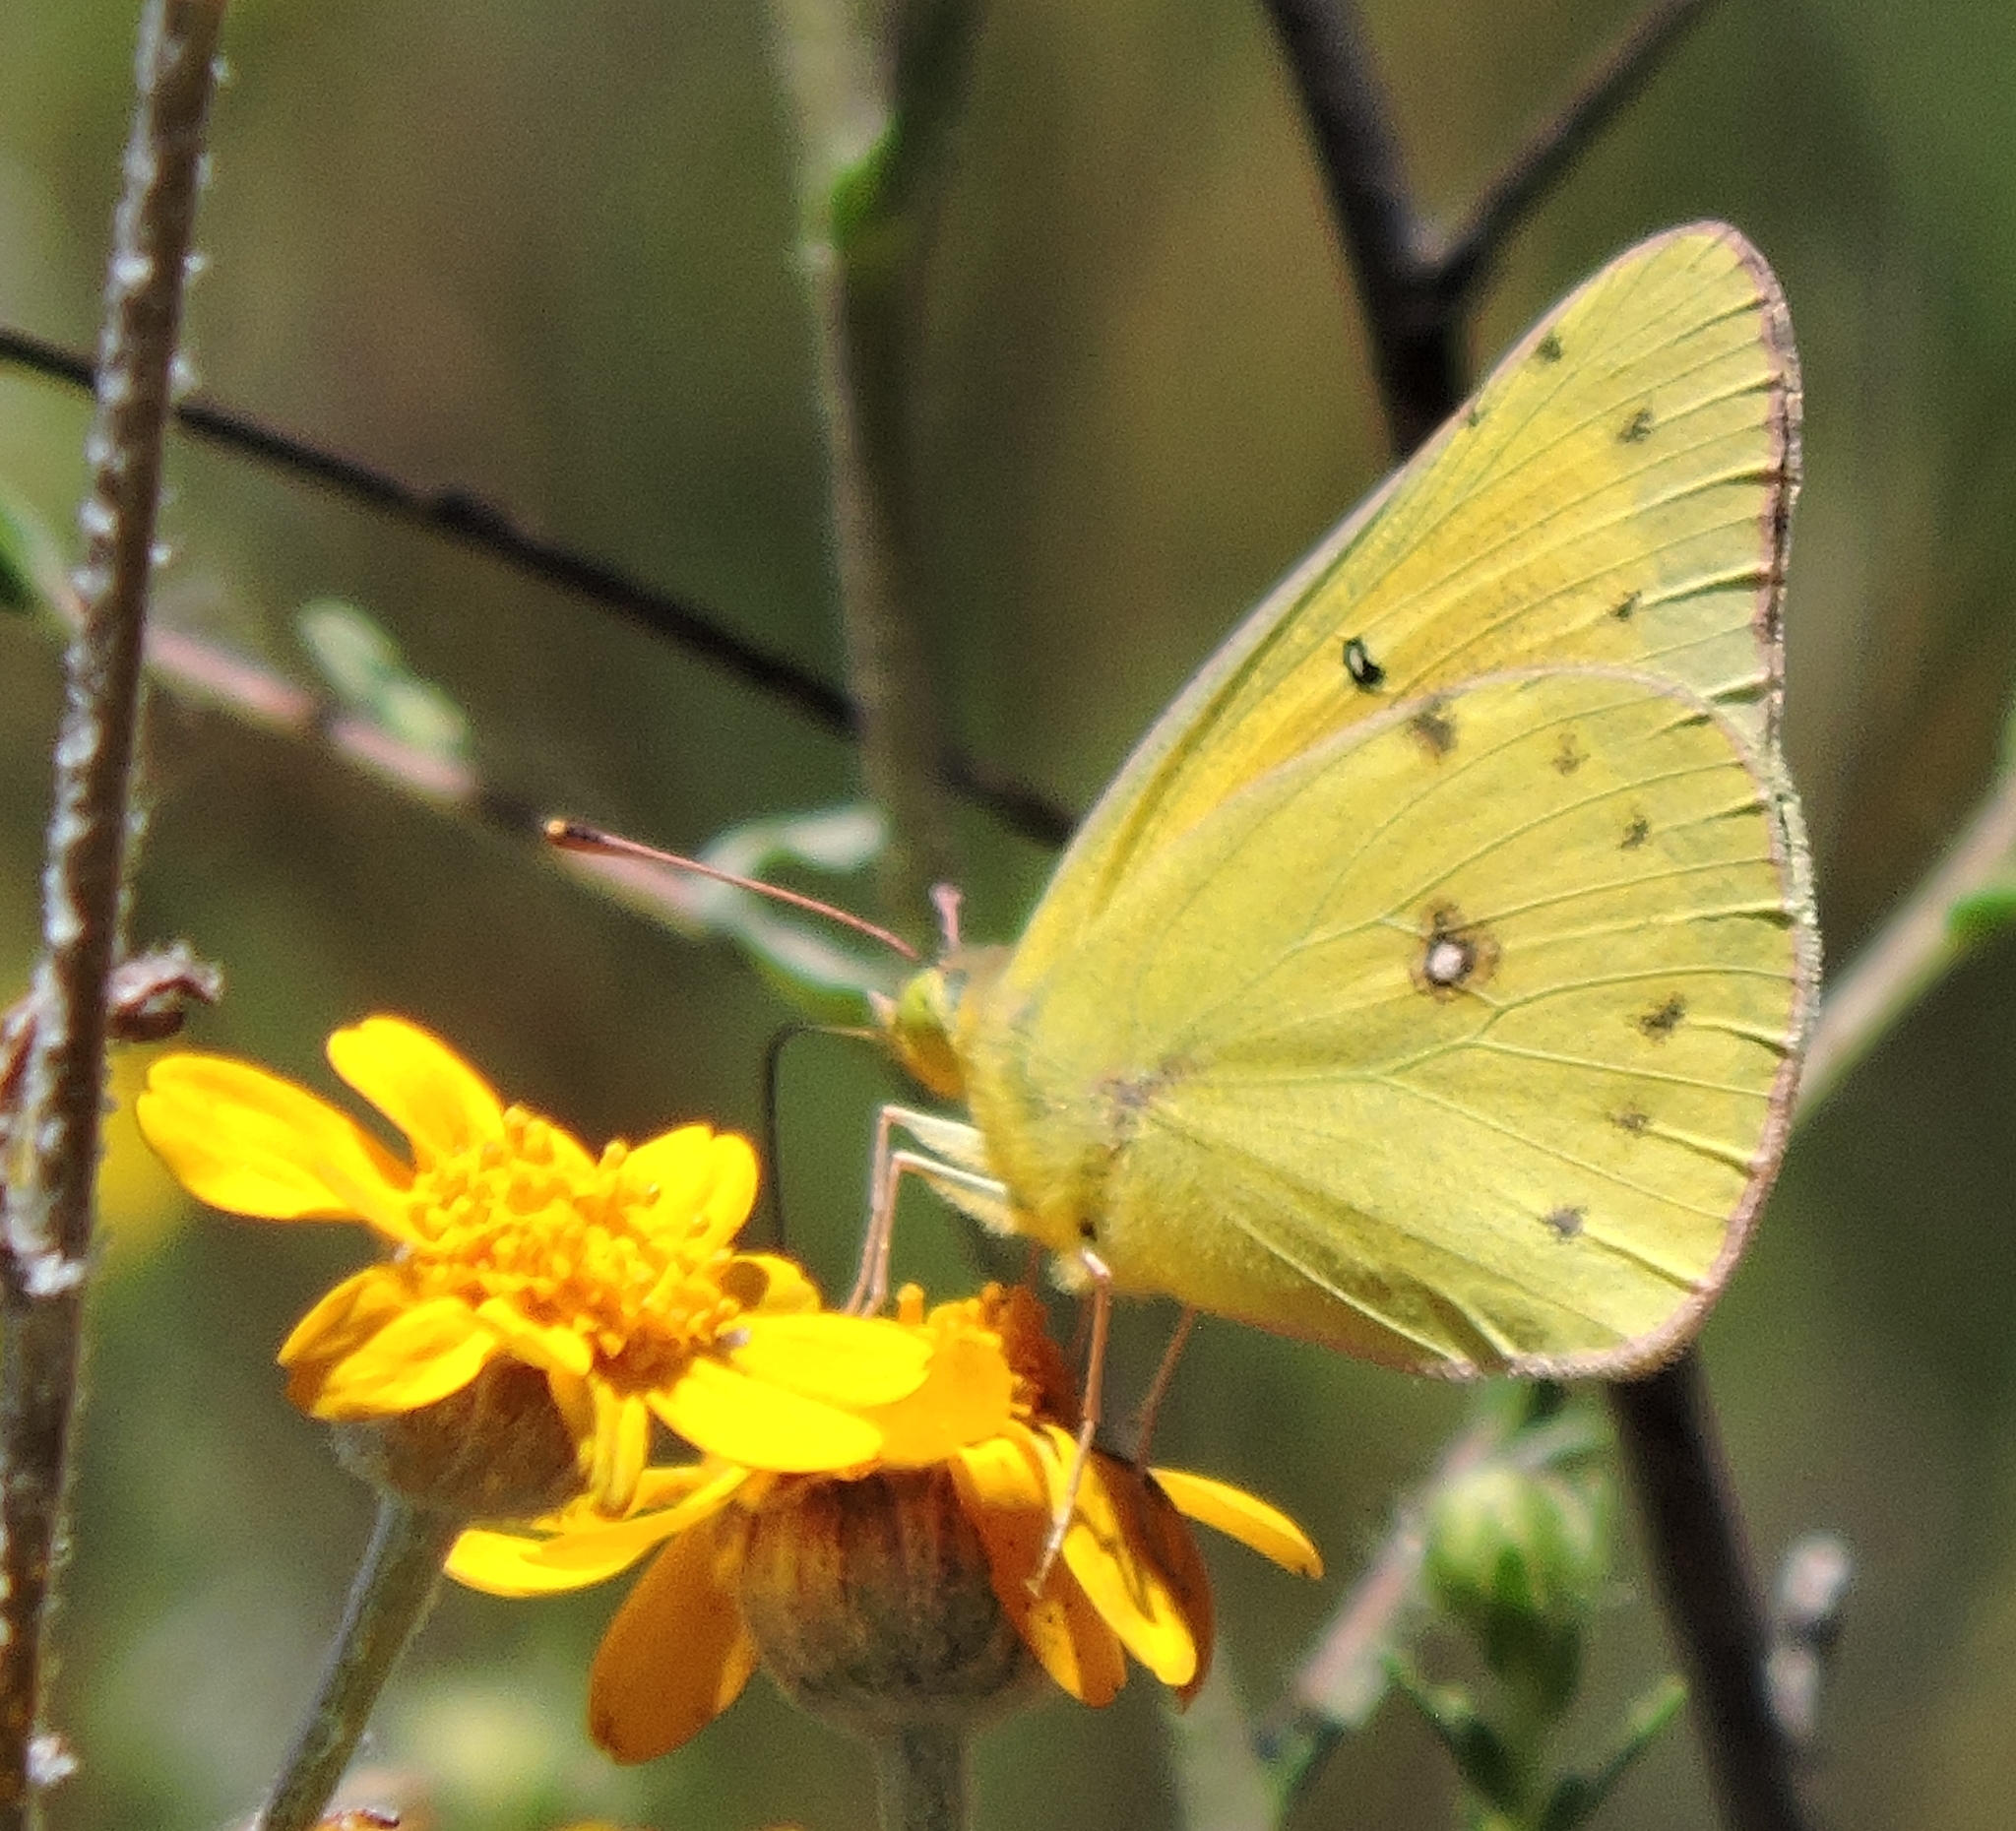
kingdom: Animalia
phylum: Arthropoda
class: Insecta
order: Lepidoptera
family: Pieridae
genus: Colias
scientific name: Colias eurytheme
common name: Alfalfa butterfly
